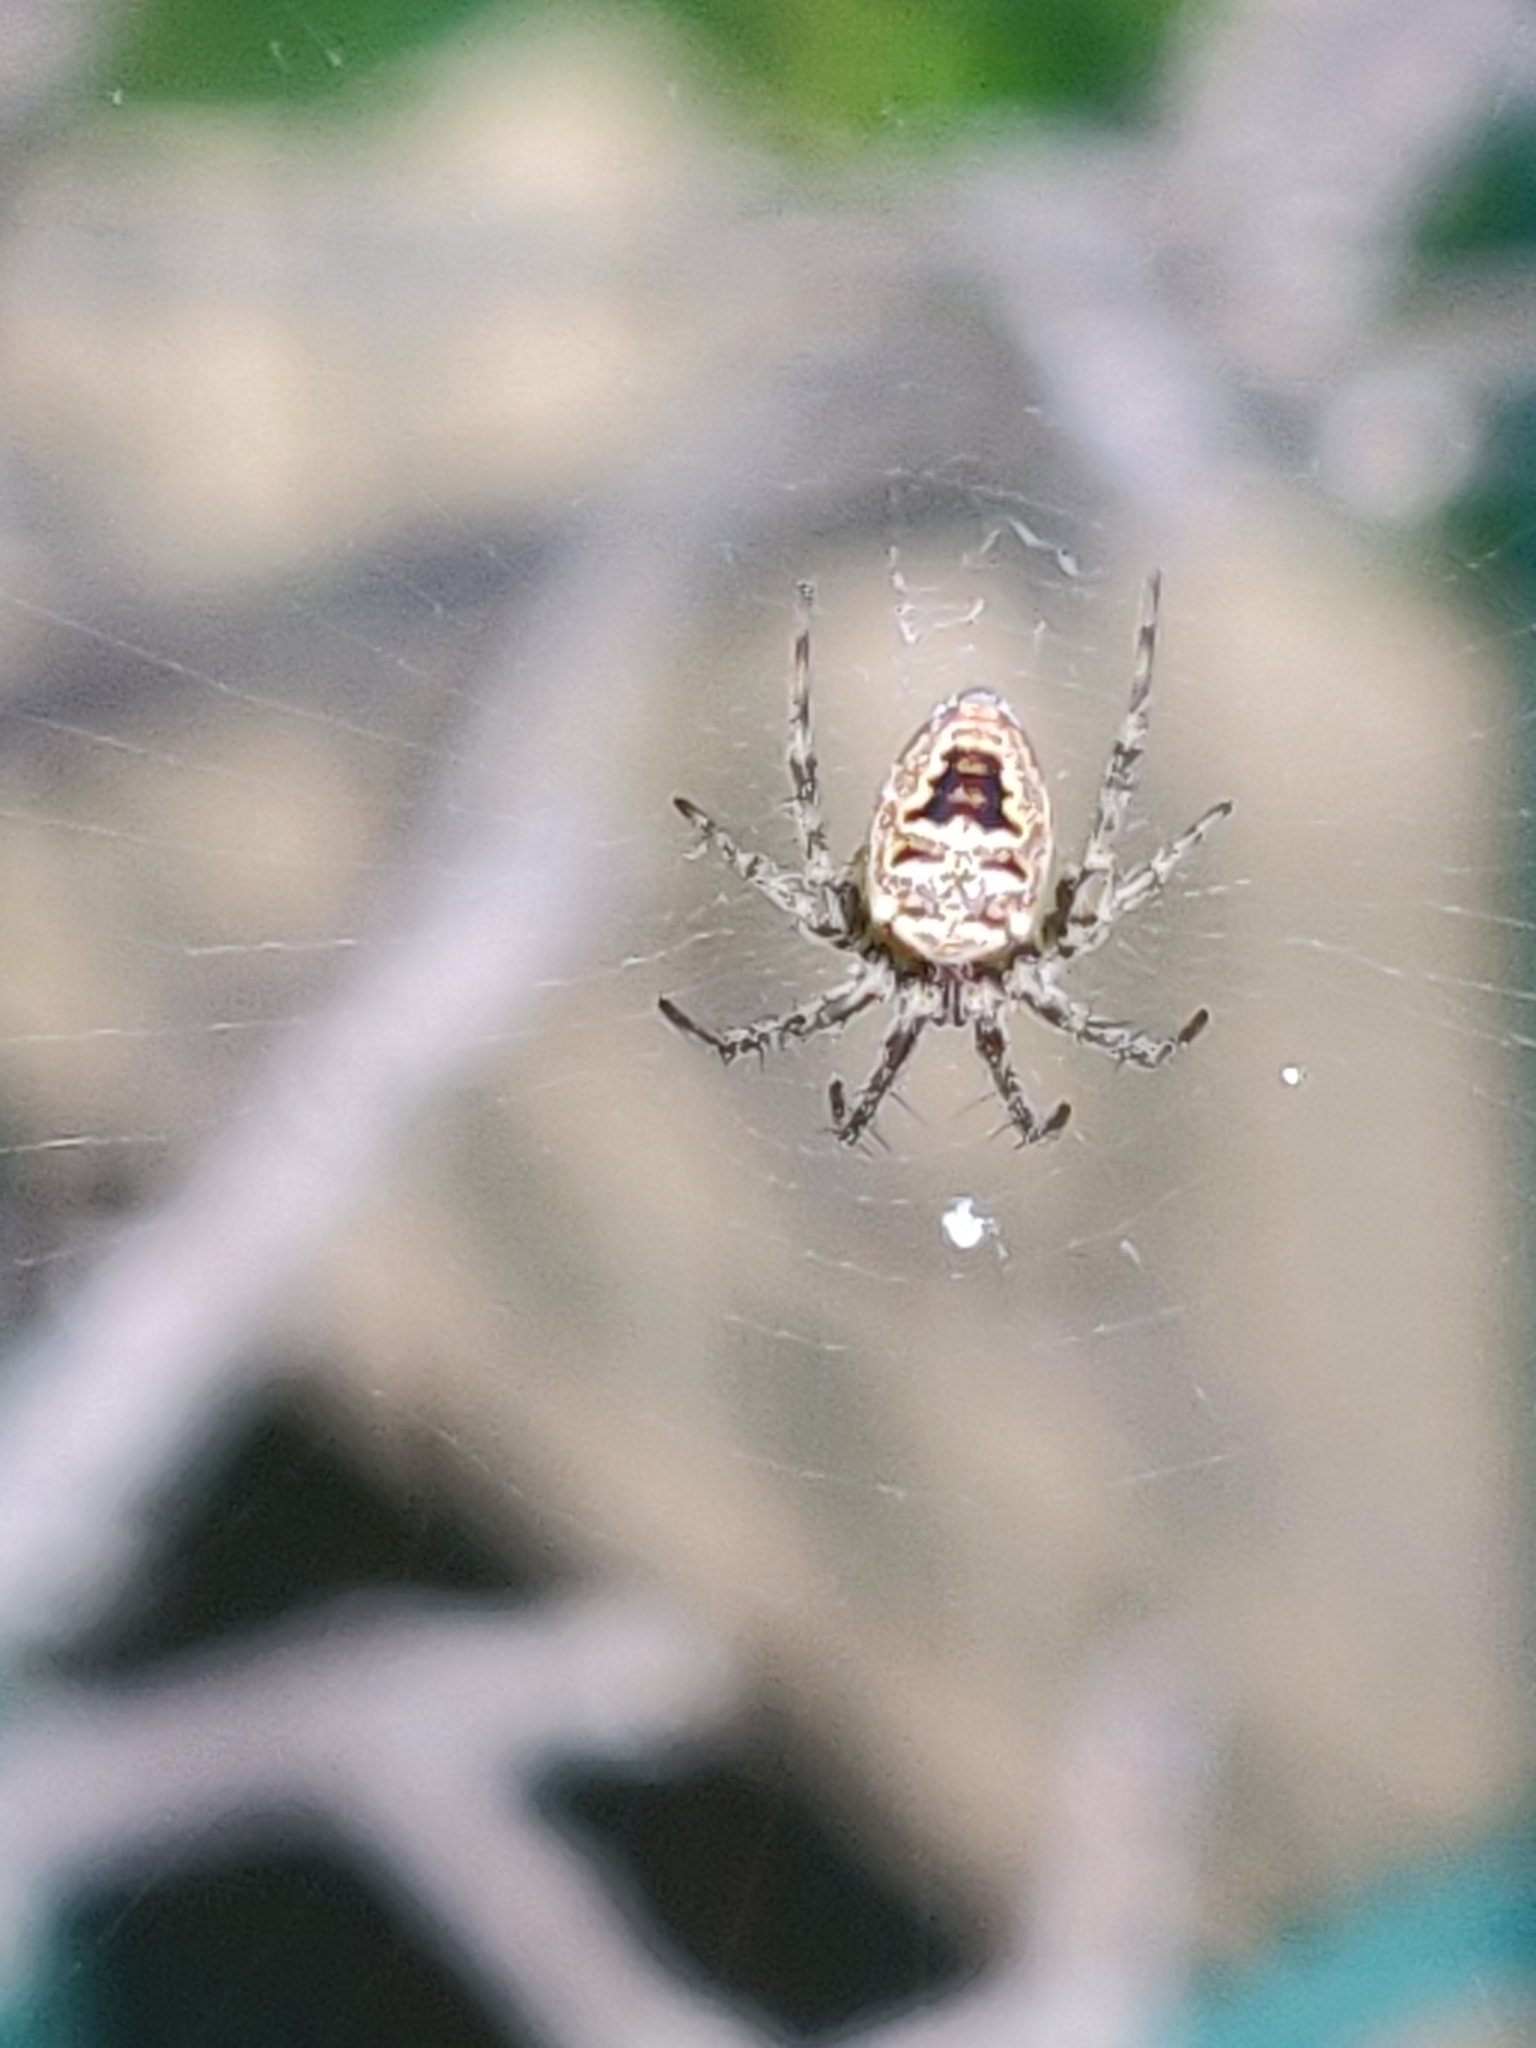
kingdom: Animalia
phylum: Arthropoda
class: Arachnida
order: Araneae
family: Araneidae
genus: Zilla
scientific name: Zilla diodia
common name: Zilla diodia
